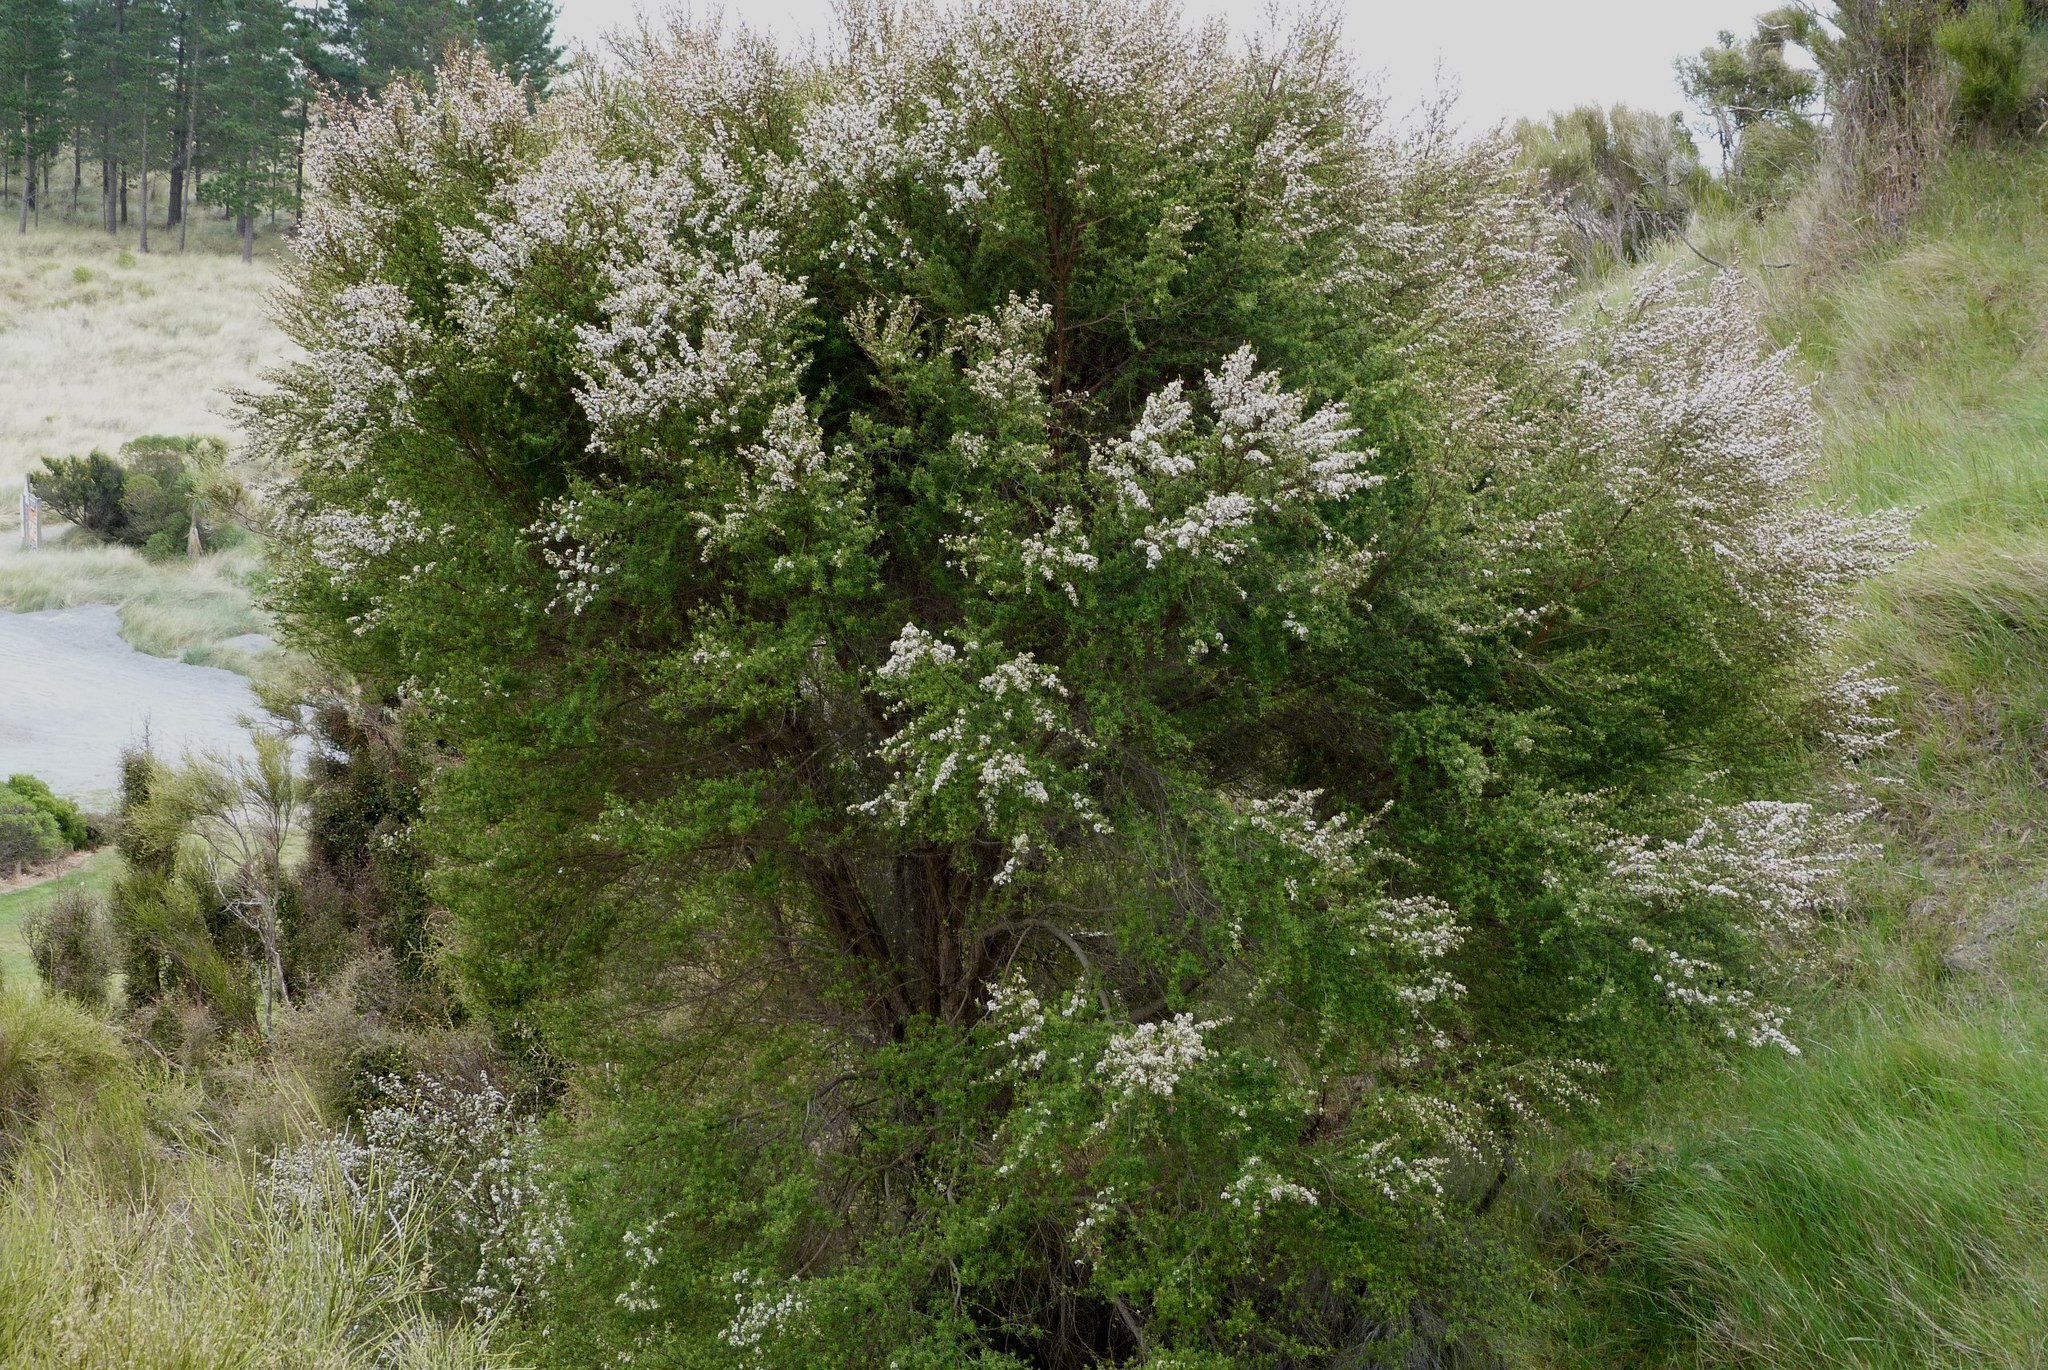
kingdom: Plantae
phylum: Tracheophyta
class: Magnoliopsida
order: Myrtales
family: Myrtaceae
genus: Kunzea
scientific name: Kunzea robusta
